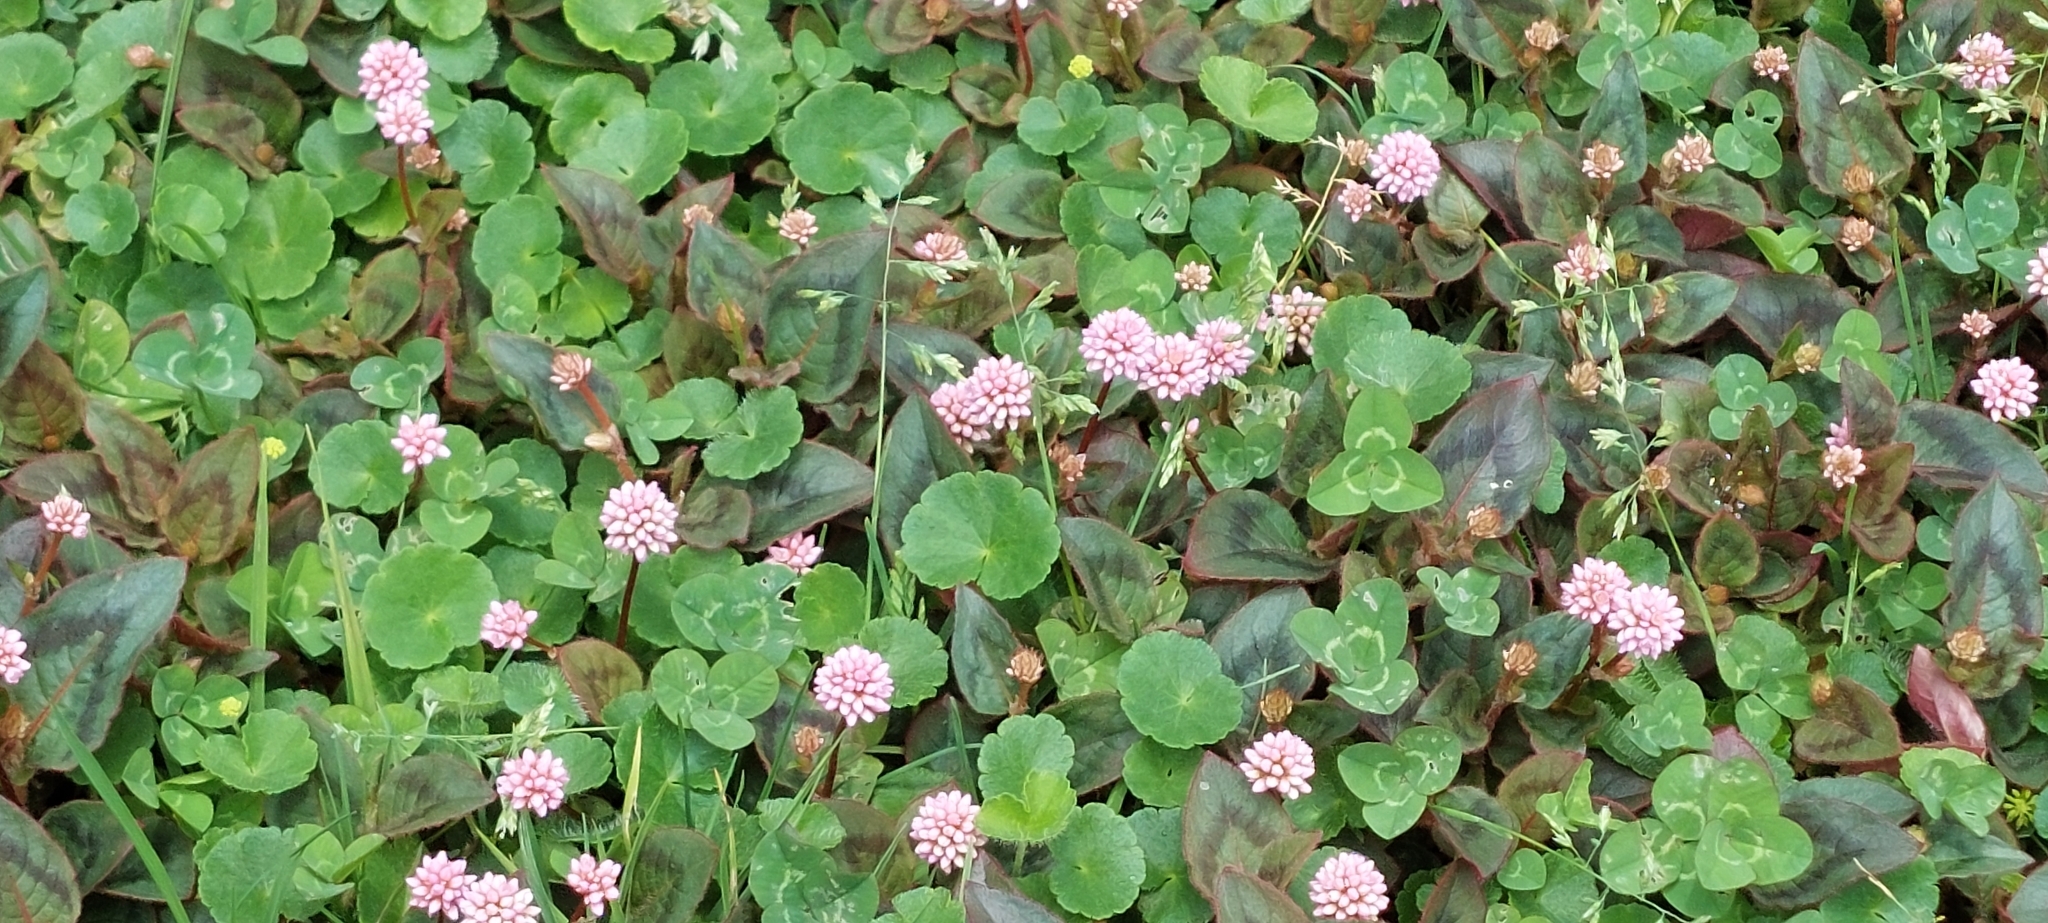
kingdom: Plantae
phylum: Tracheophyta
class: Magnoliopsida
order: Caryophyllales
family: Polygonaceae
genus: Persicaria
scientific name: Persicaria capitata
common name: Pinkhead smartweed
